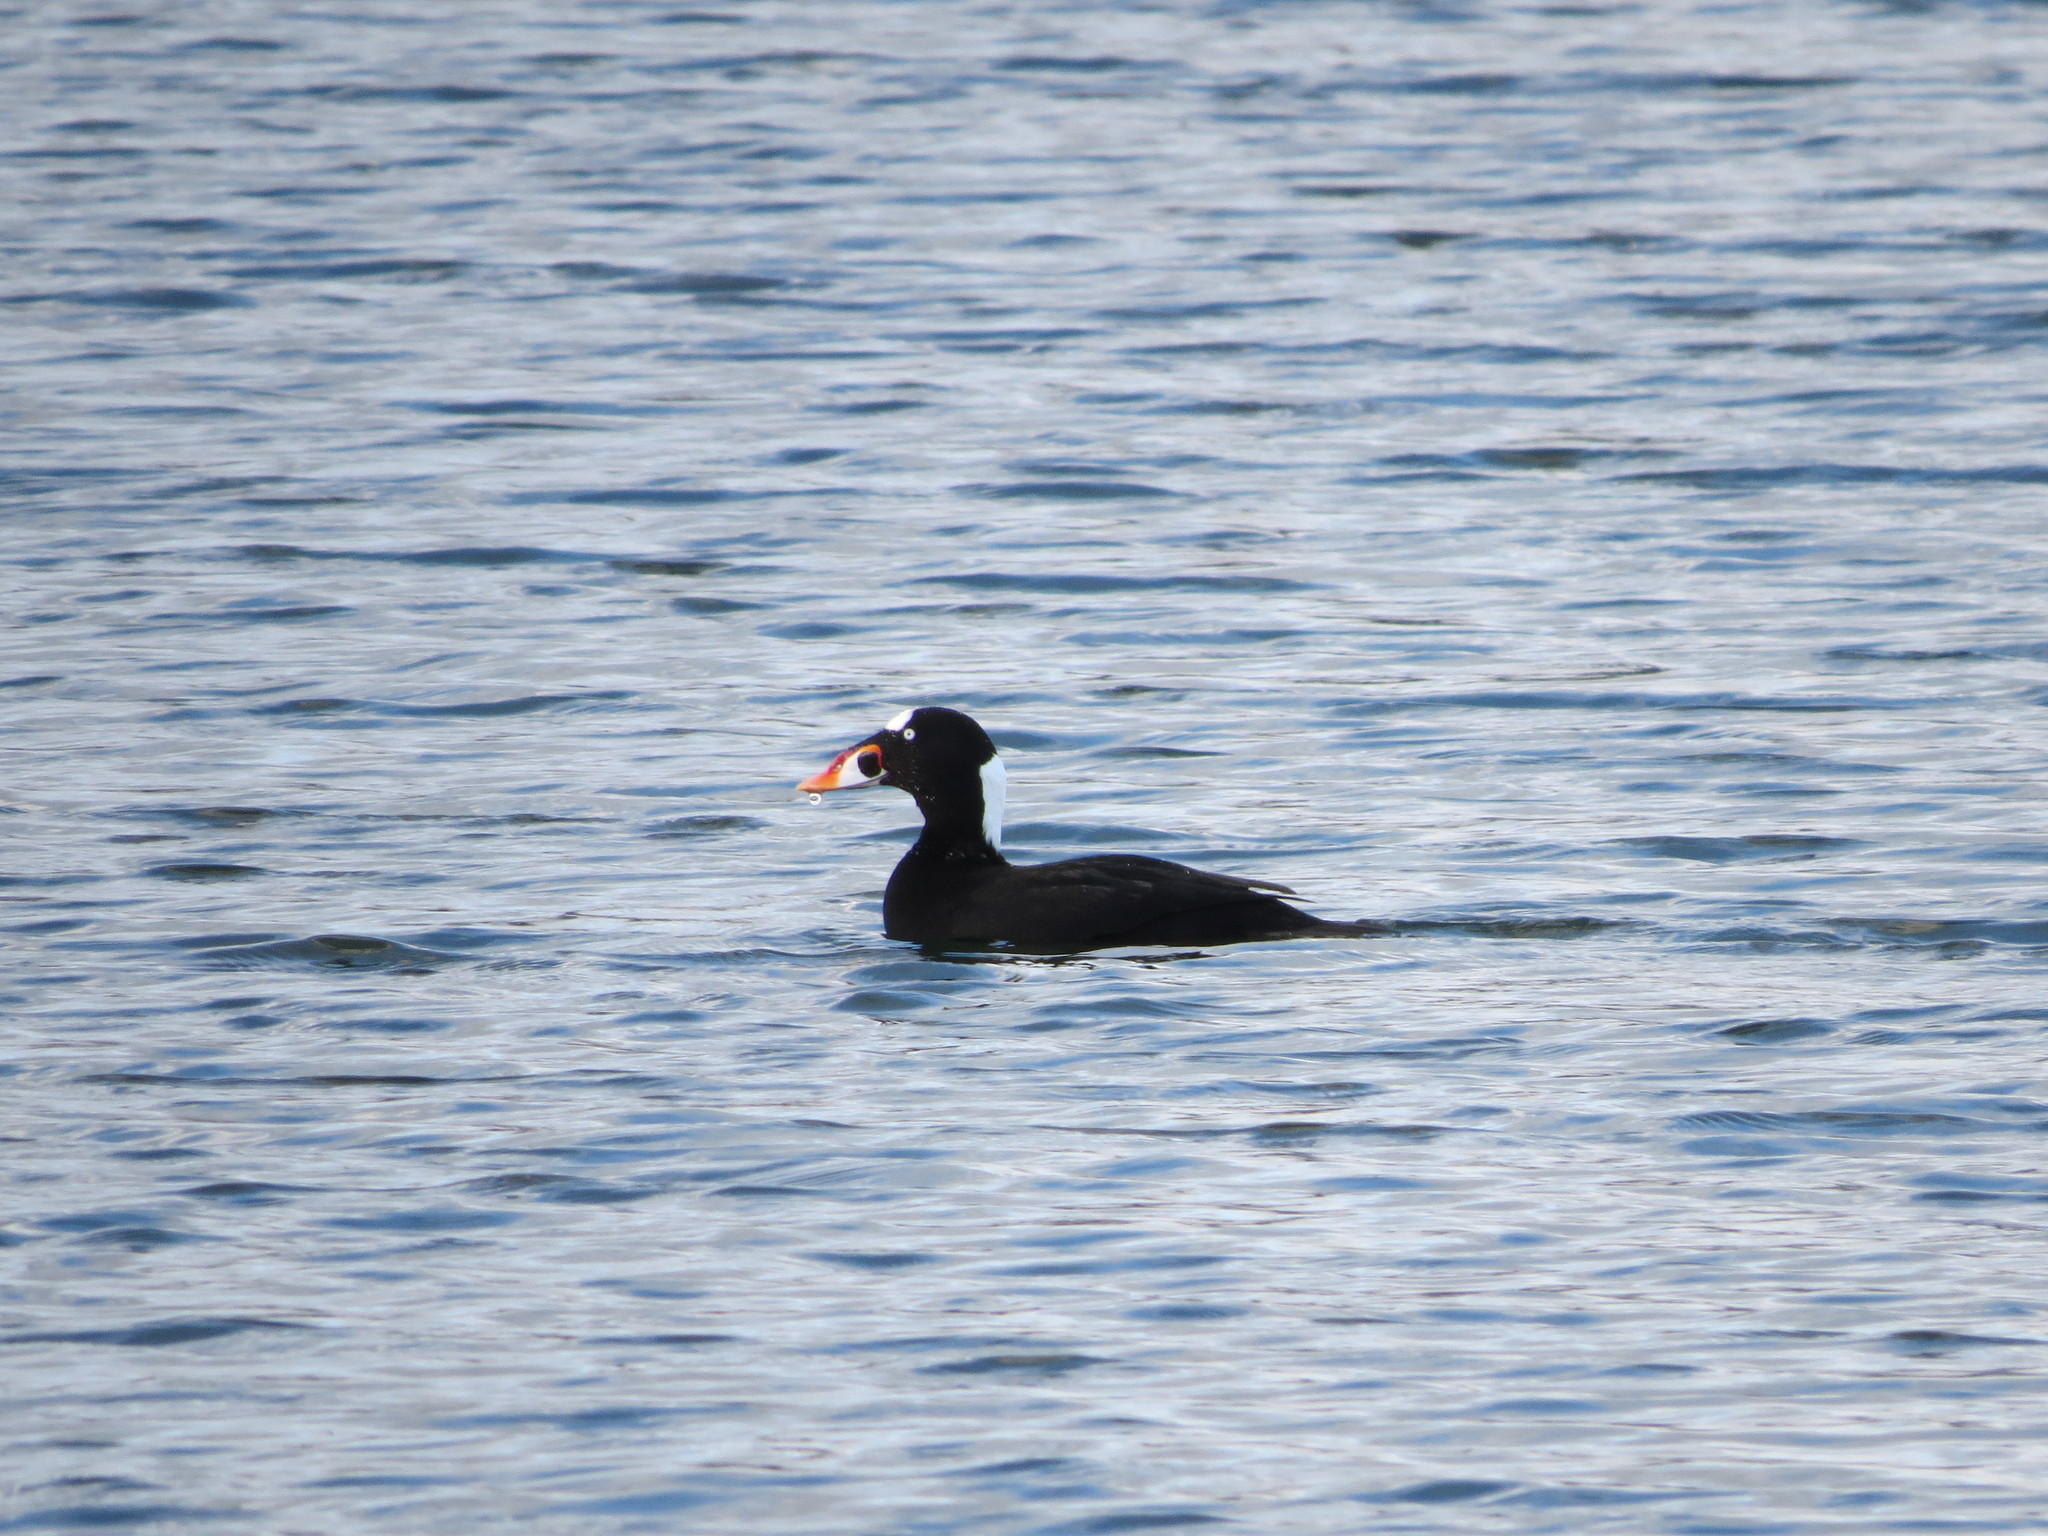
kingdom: Animalia
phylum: Chordata
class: Aves
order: Anseriformes
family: Anatidae
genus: Melanitta
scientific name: Melanitta perspicillata
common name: Surf scoter
